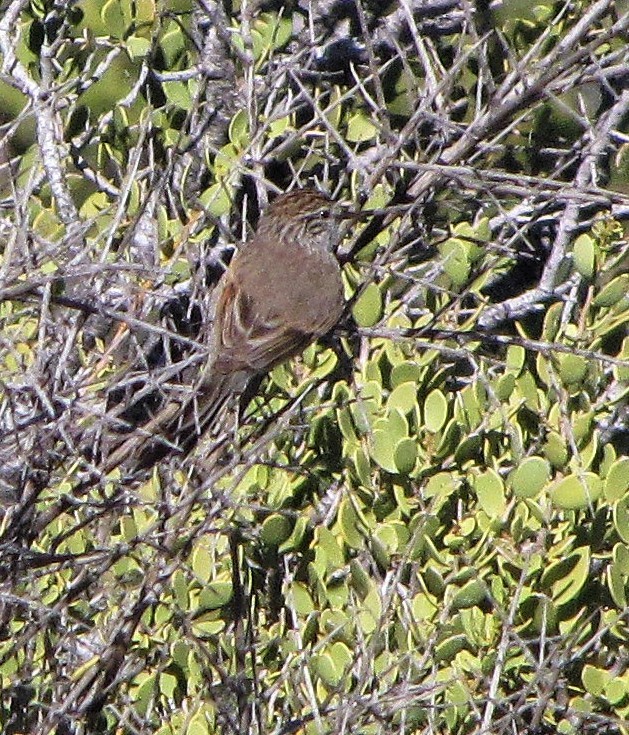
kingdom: Animalia
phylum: Chordata
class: Aves
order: Passeriformes
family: Furnariidae
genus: Leptasthenura
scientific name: Leptasthenura aegithaloides
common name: Plain-mantled tit-spinetail
